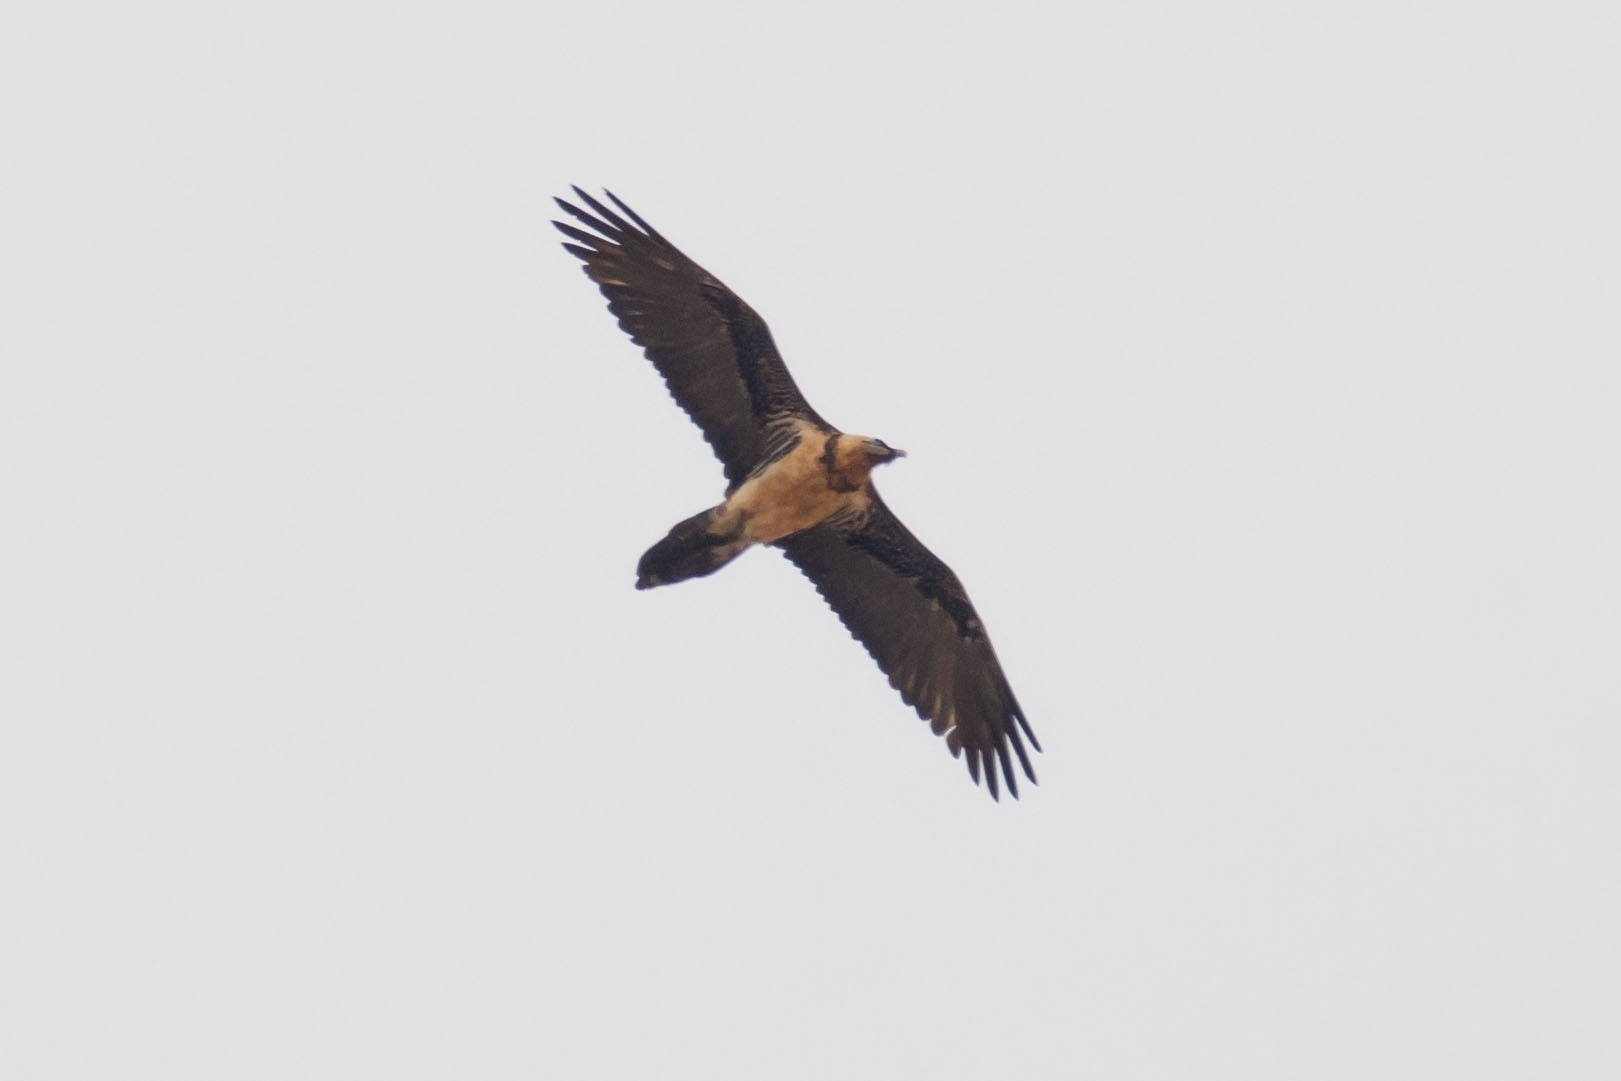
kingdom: Animalia
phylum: Chordata
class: Aves
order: Accipitriformes
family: Accipitridae
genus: Gypaetus
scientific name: Gypaetus barbatus
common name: Bearded vulture
